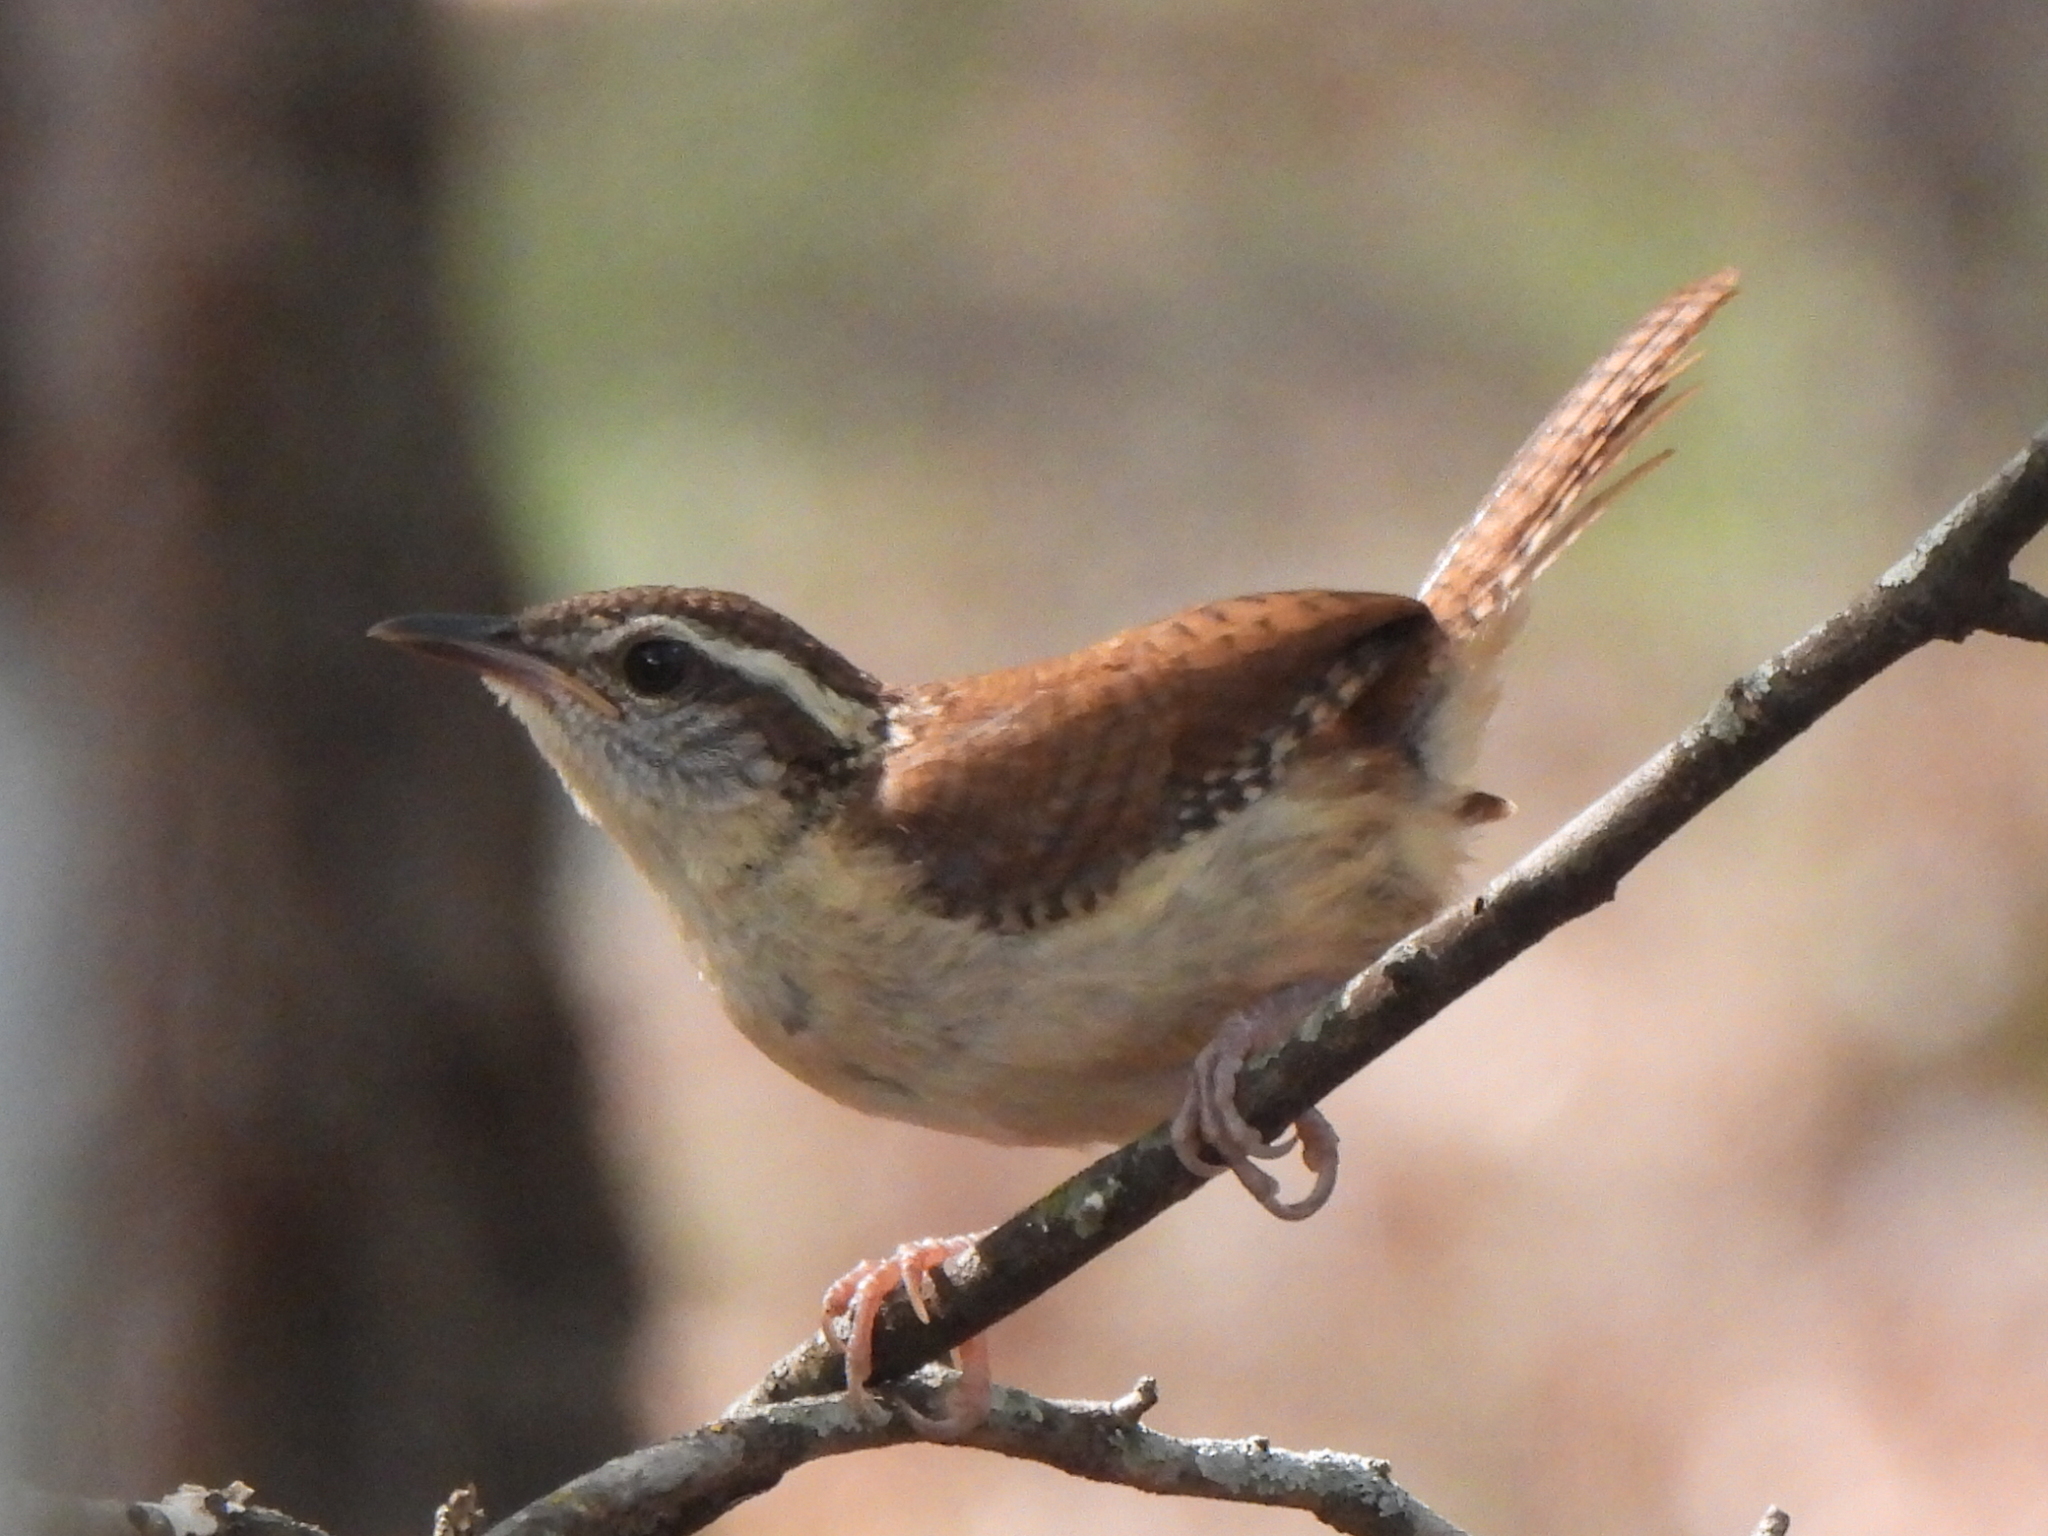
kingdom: Animalia
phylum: Chordata
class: Aves
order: Passeriformes
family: Troglodytidae
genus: Thryothorus
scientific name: Thryothorus ludovicianus
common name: Carolina wren
